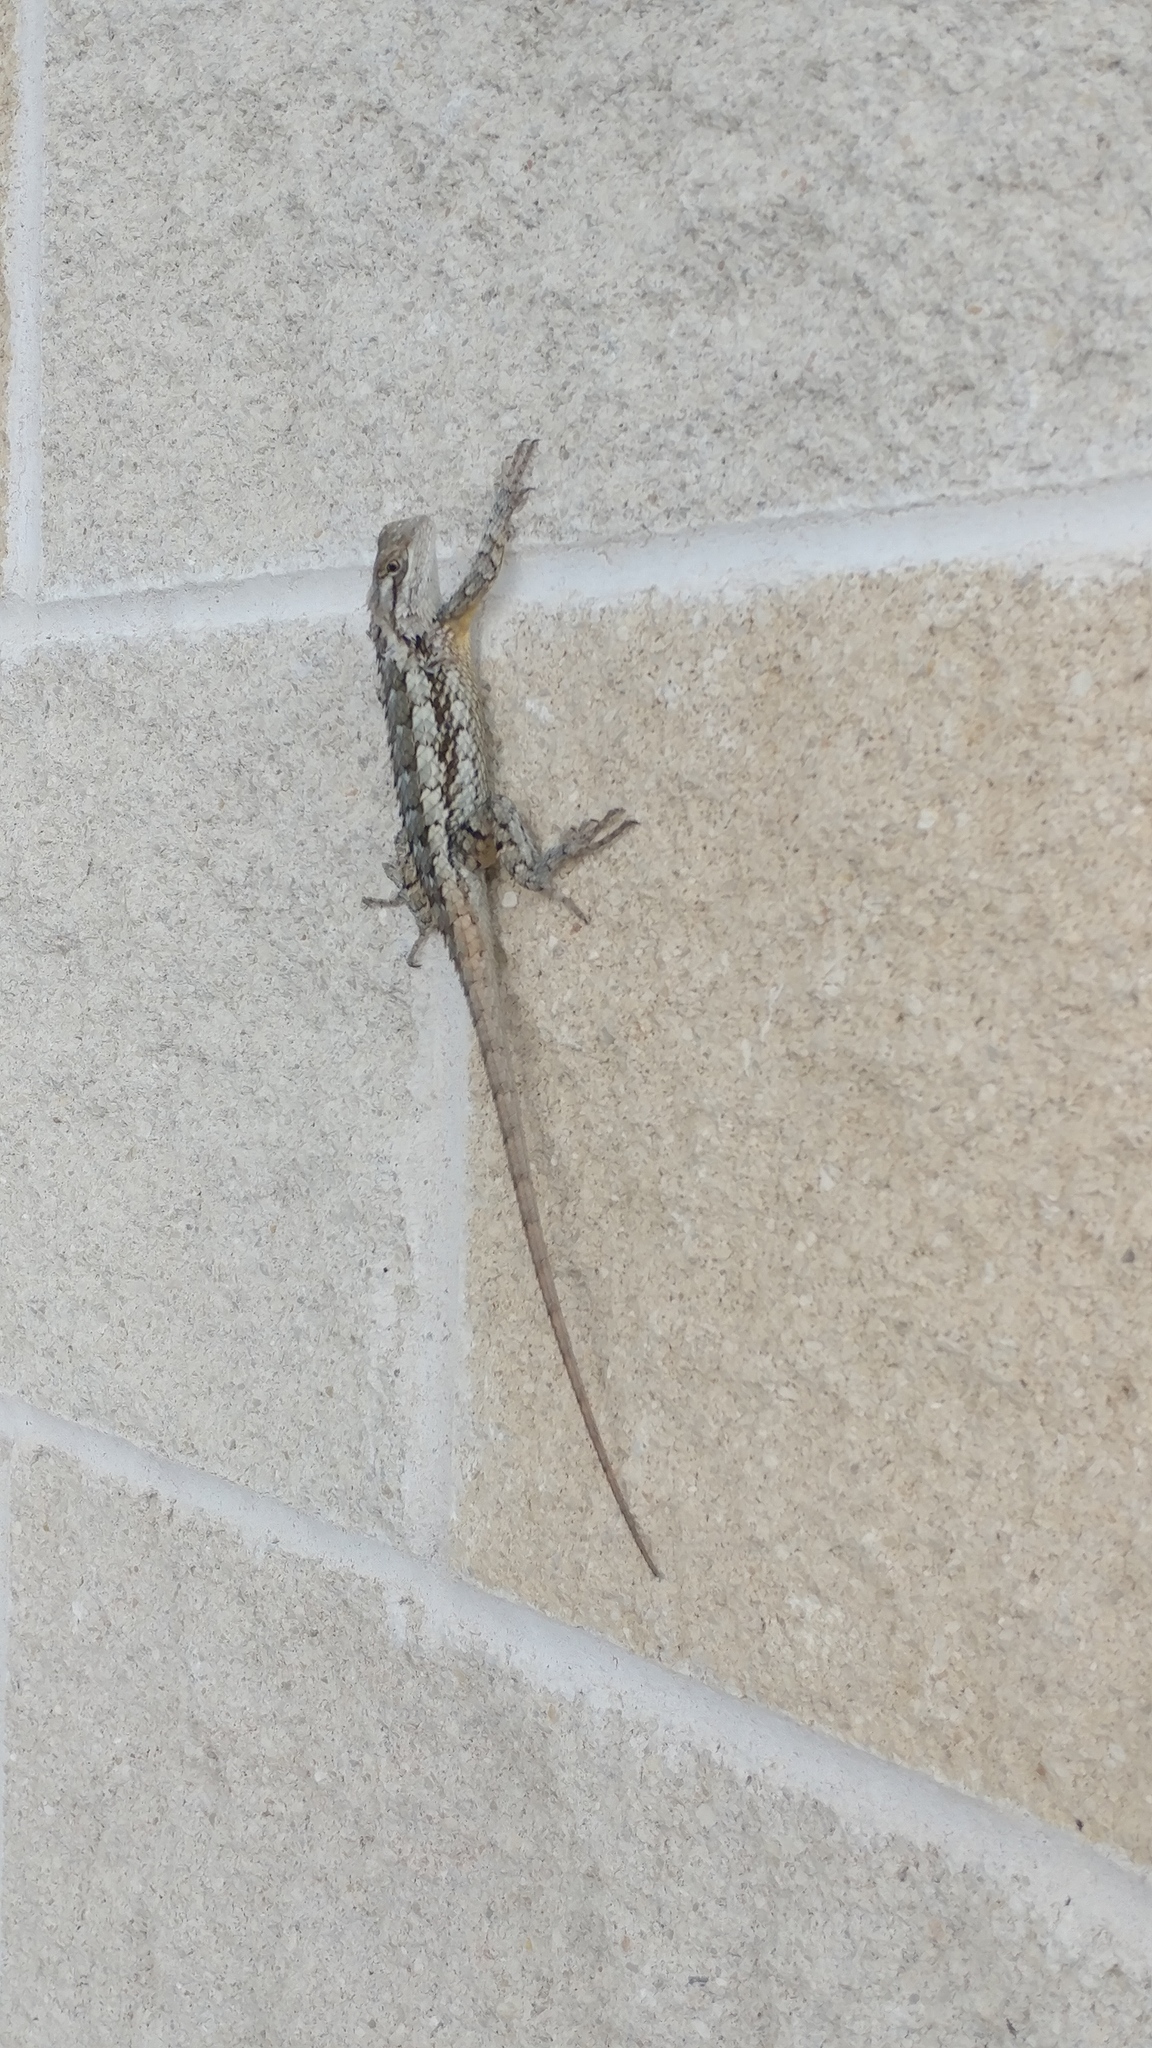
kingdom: Animalia
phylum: Chordata
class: Squamata
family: Phrynosomatidae
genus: Sceloporus
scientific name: Sceloporus olivaceus
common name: Texas spiny lizard
